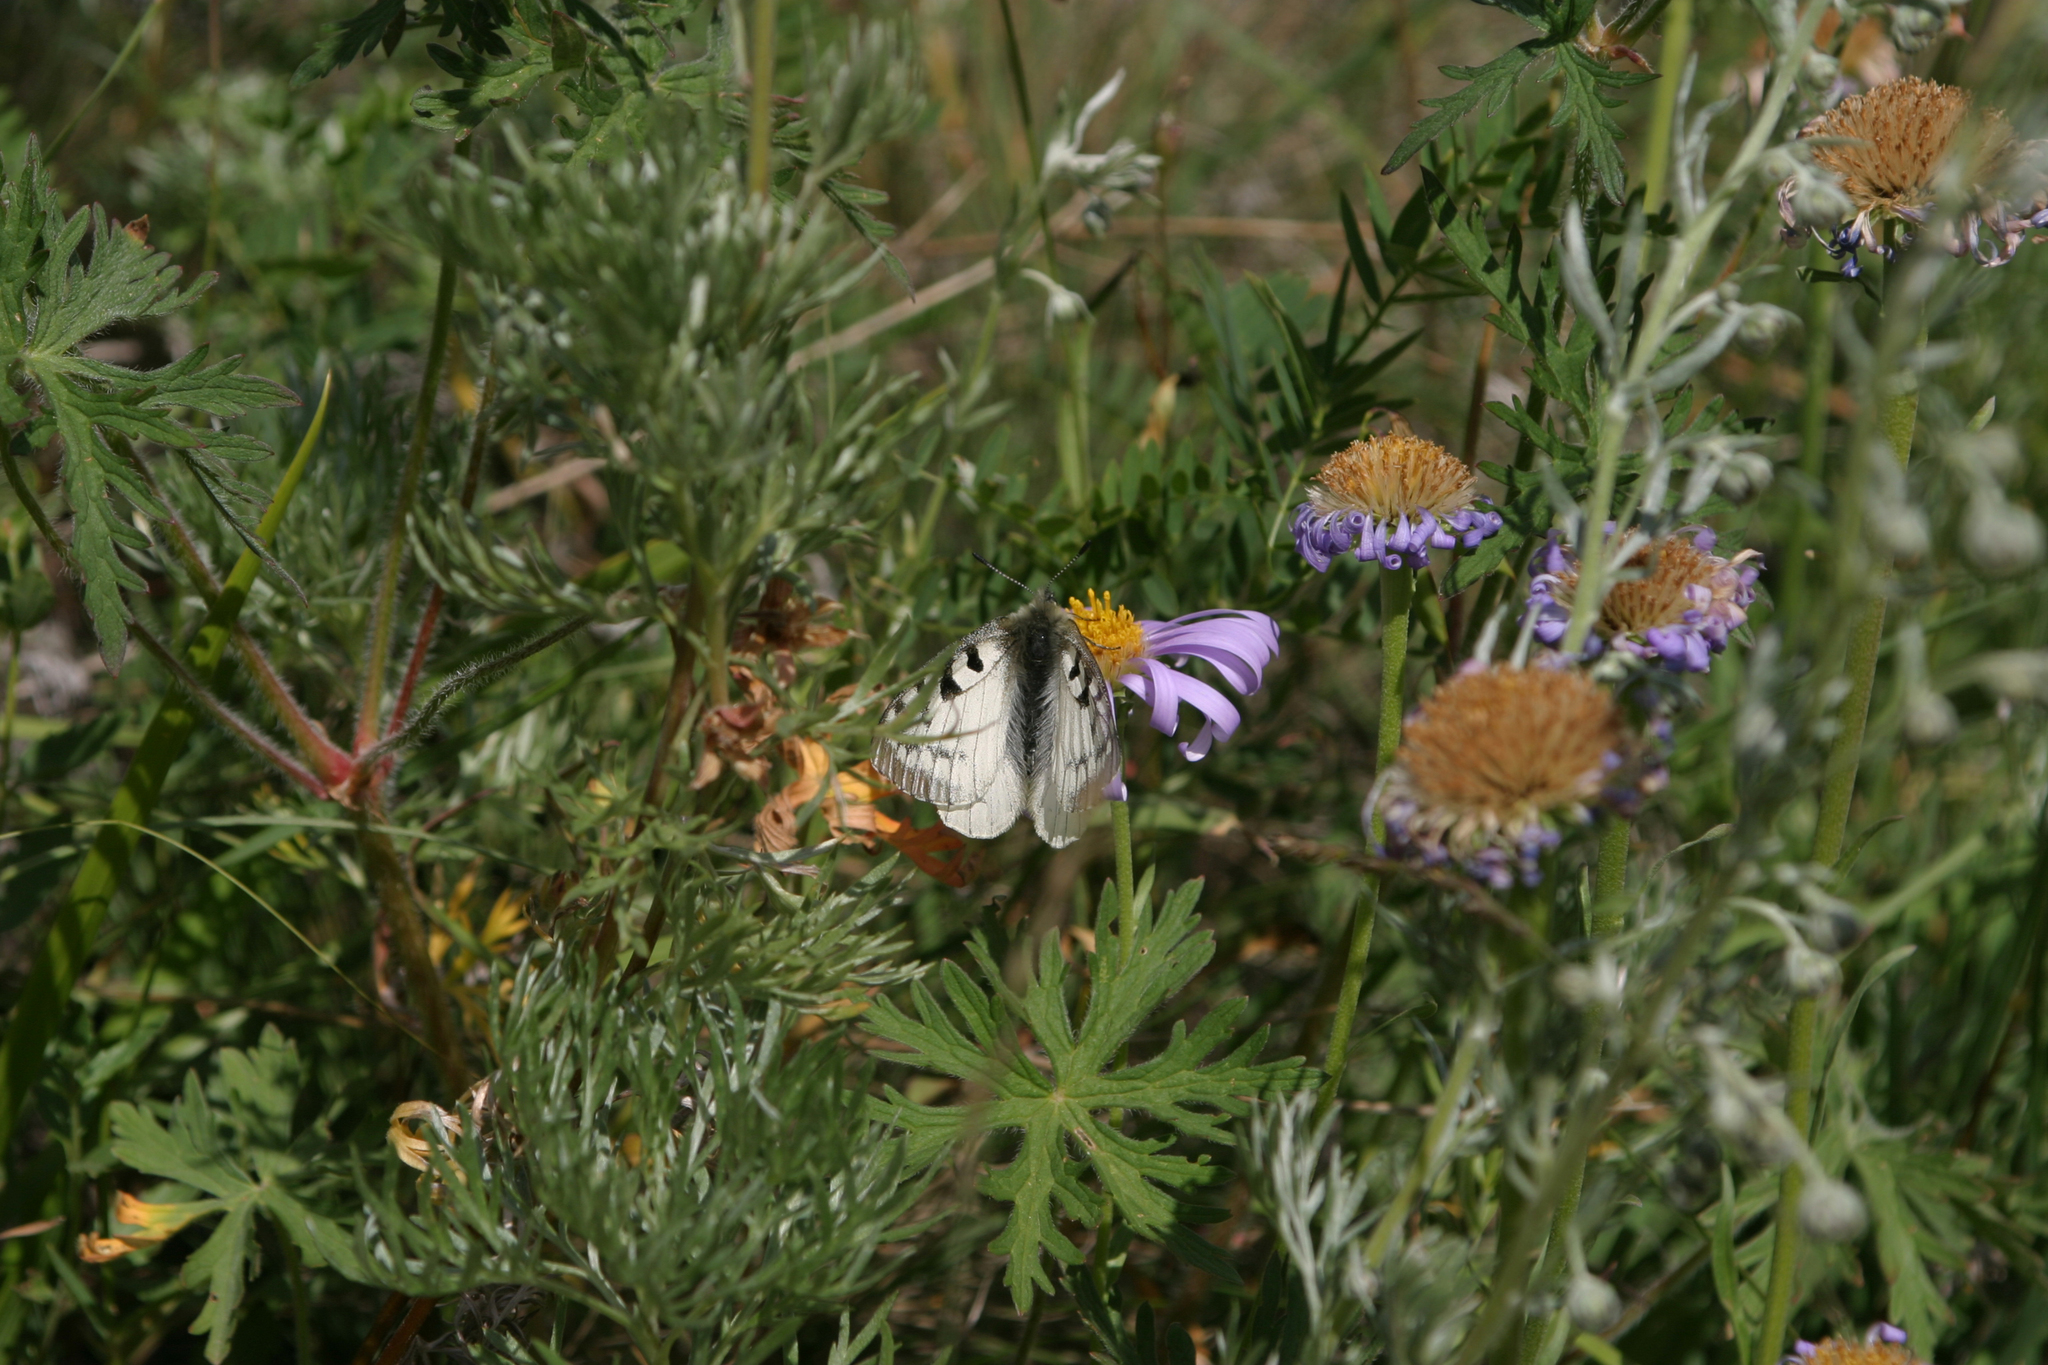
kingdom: Animalia
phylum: Arthropoda
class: Insecta
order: Lepidoptera
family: Papilionidae
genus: Parnassius
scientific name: Parnassius phoebus
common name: Small apollo
